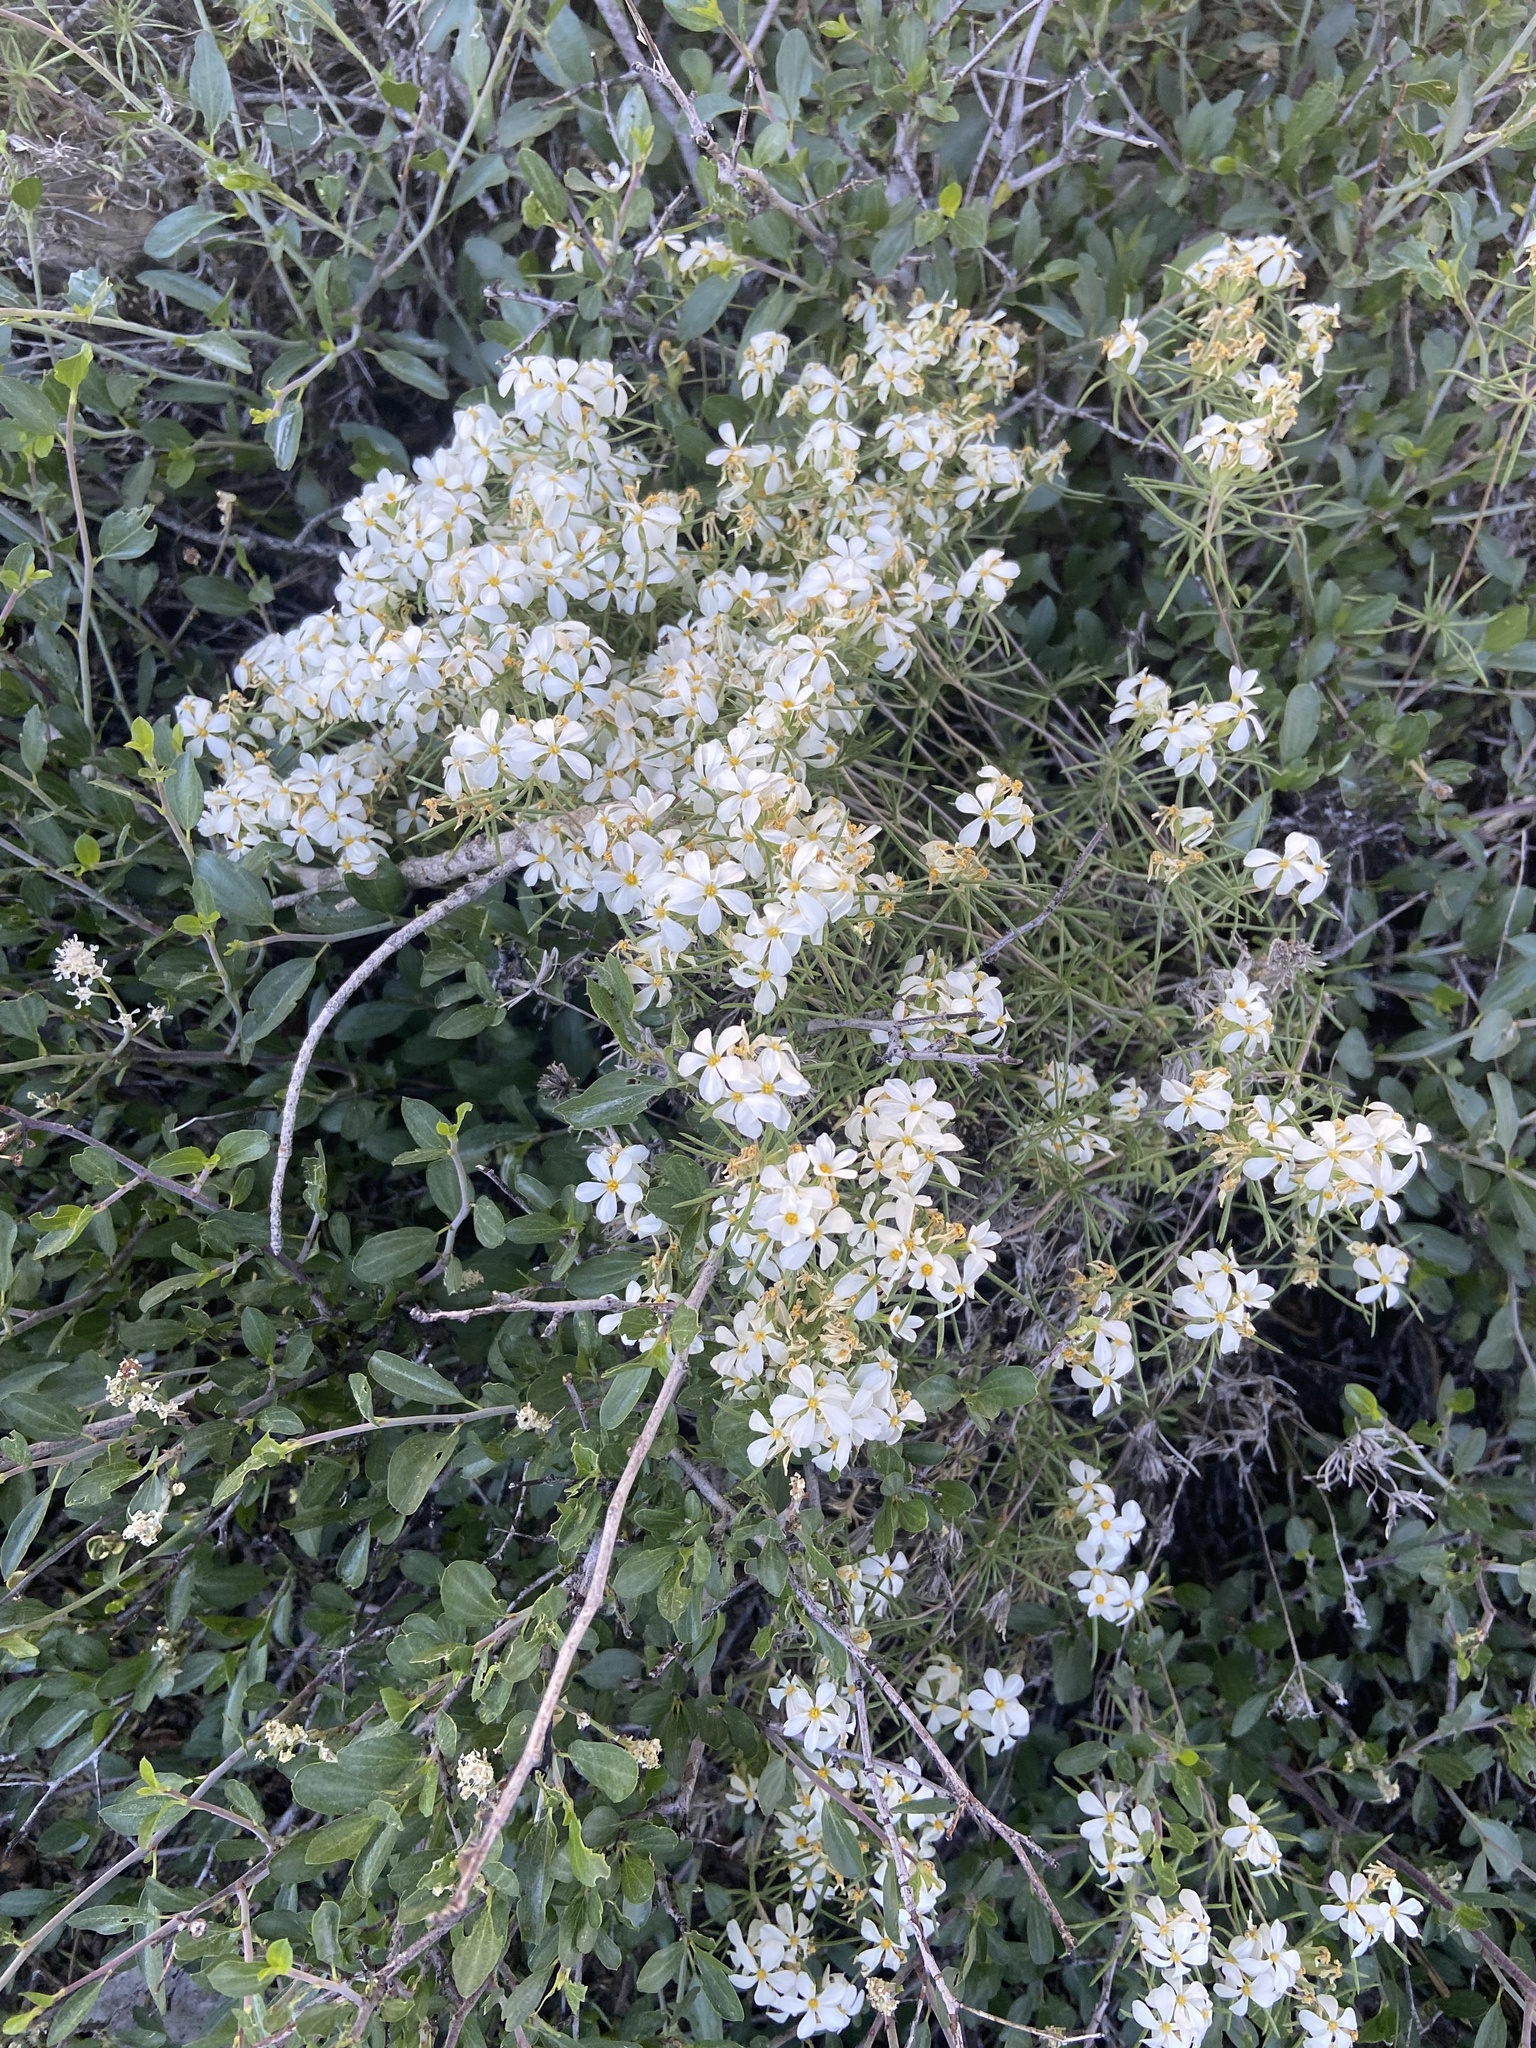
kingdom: Plantae
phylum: Tracheophyta
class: Magnoliopsida
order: Ericales
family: Polemoniaceae
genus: Leptosiphon
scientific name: Leptosiphon nuttallii
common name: Nuttall's linanthus
